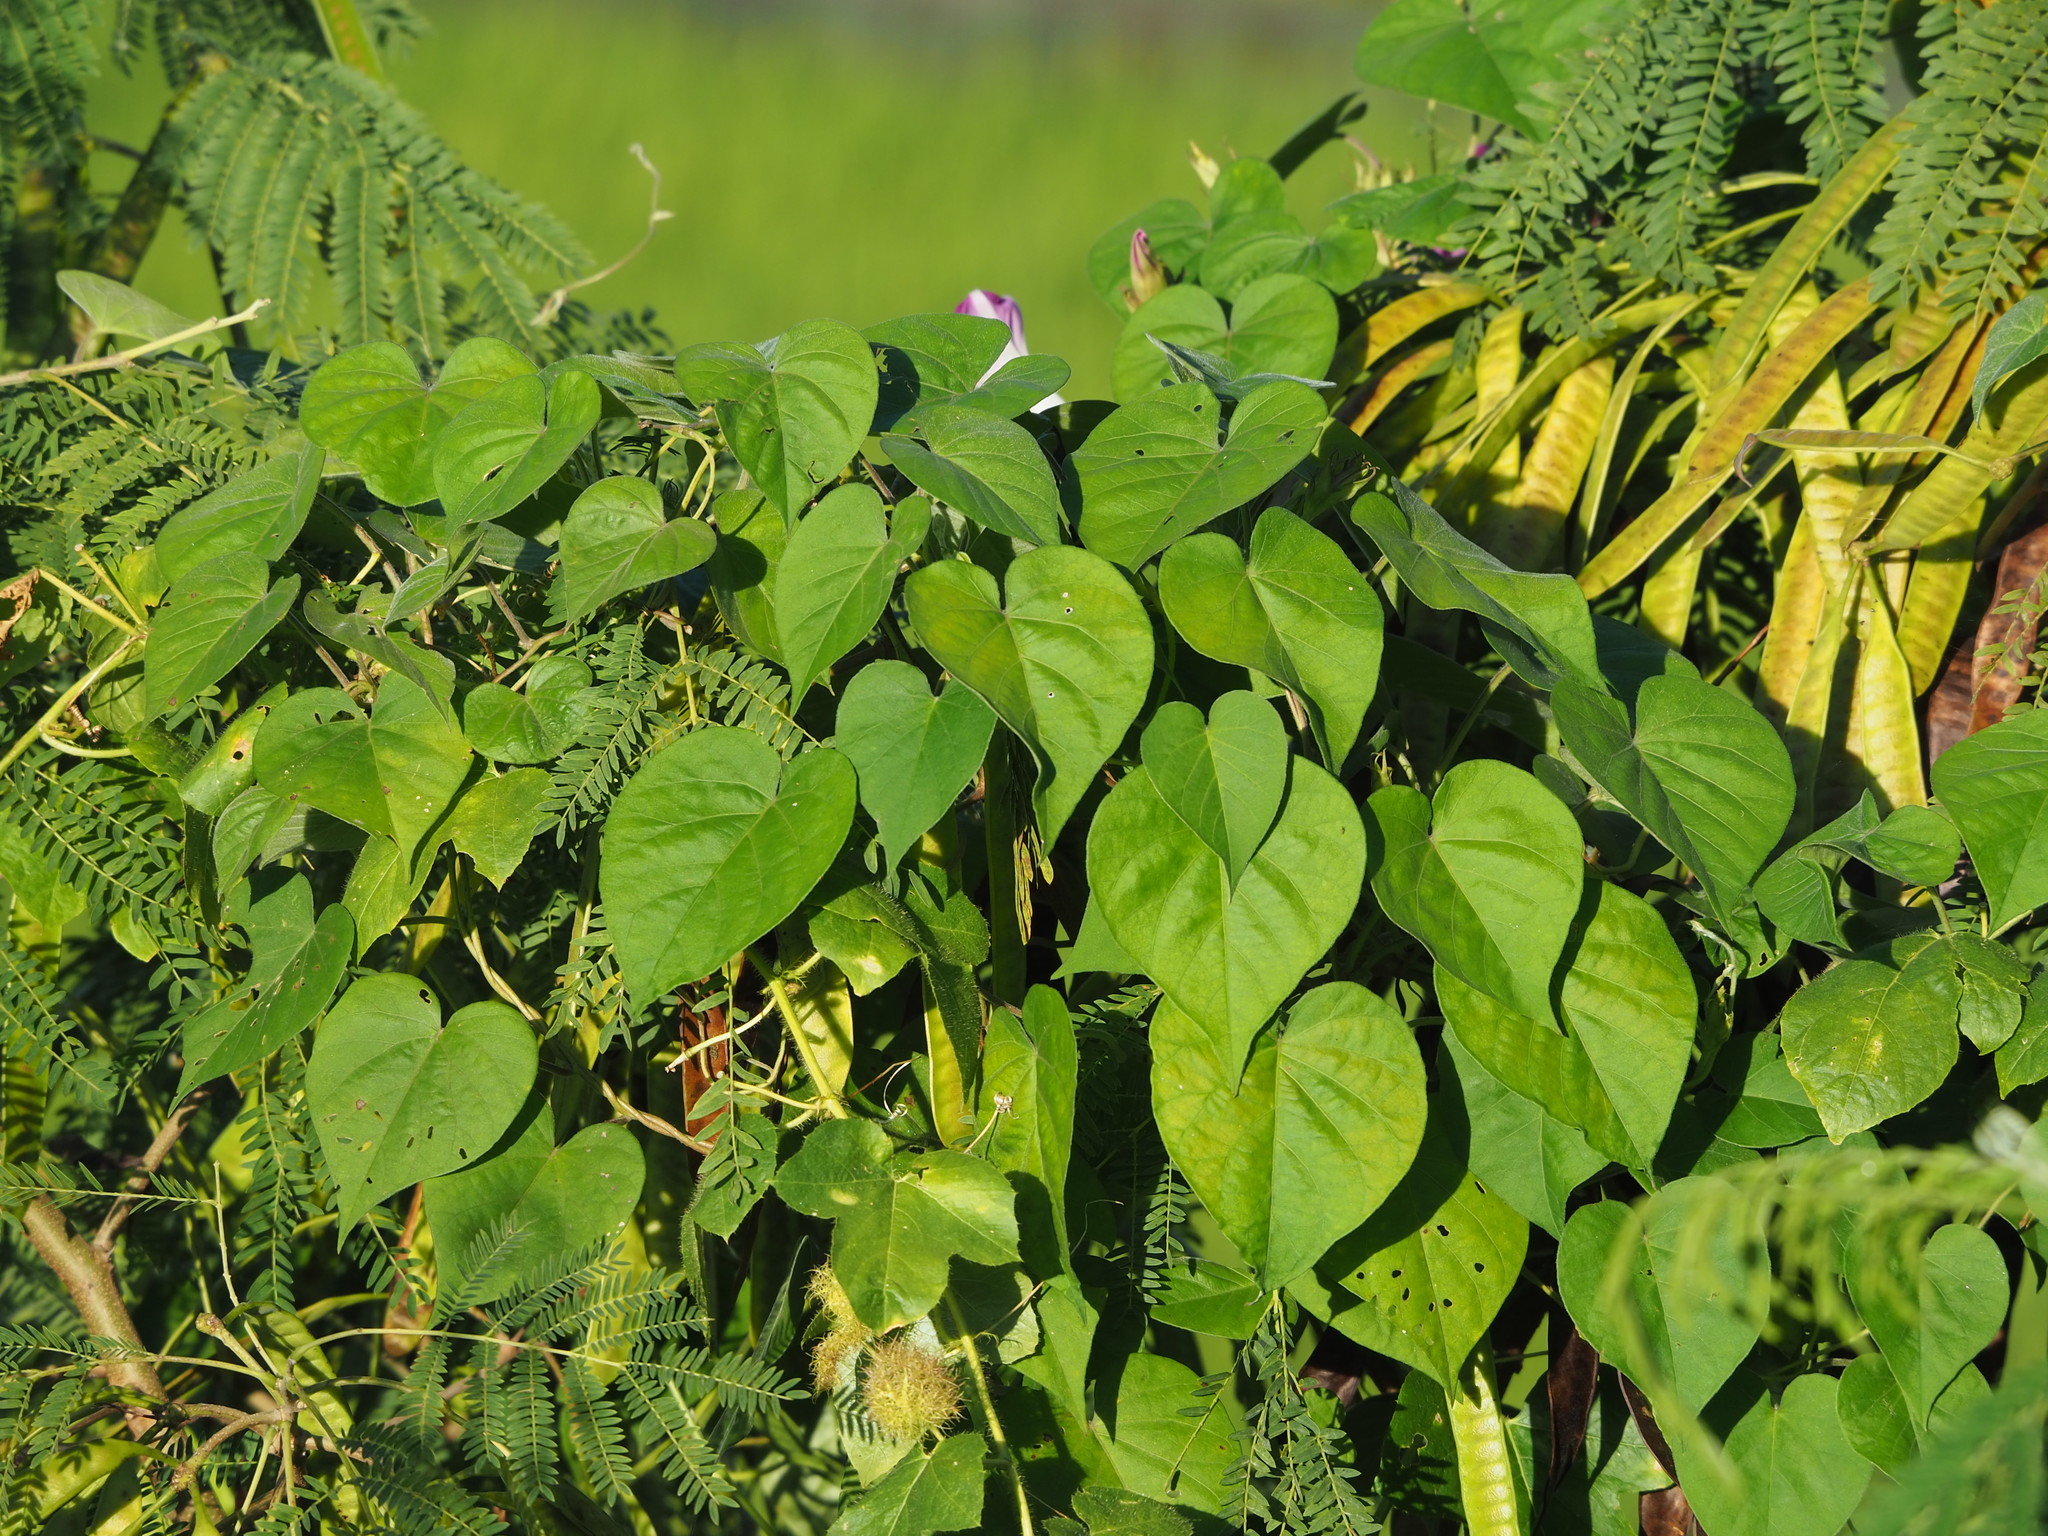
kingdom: Plantae
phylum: Tracheophyta
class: Magnoliopsida
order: Solanales
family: Convolvulaceae
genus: Ipomoea
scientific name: Ipomoea indica
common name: Blue dawnflower
